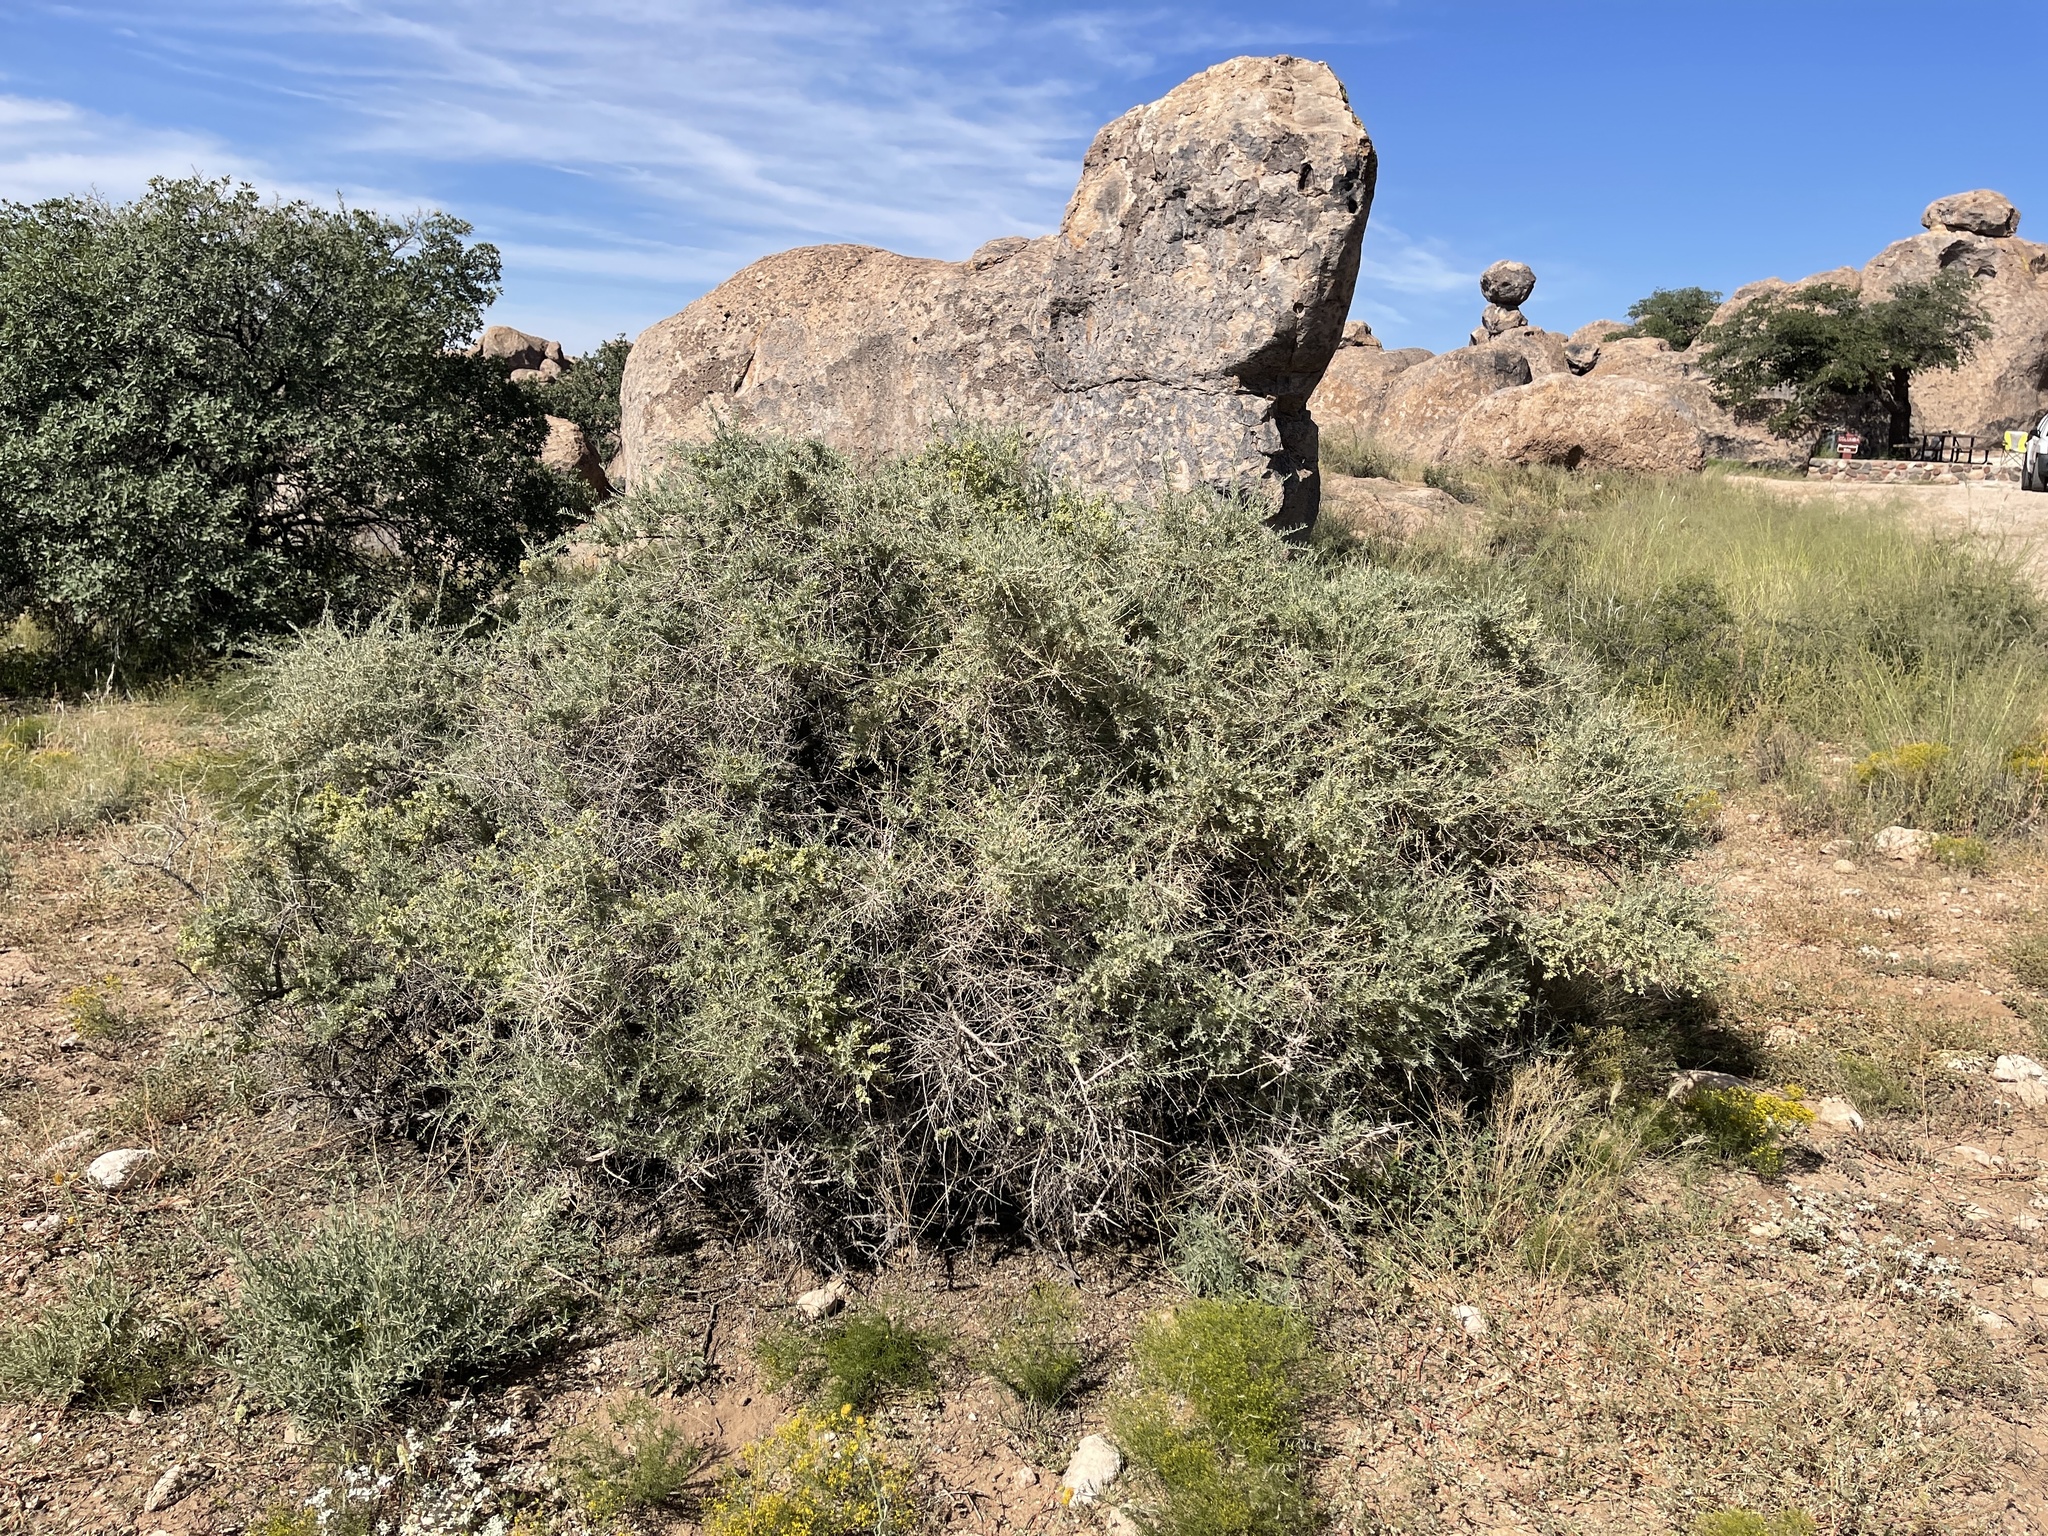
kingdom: Plantae
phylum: Tracheophyta
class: Magnoliopsida
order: Caryophyllales
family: Amaranthaceae
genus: Atriplex
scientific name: Atriplex canescens
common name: Four-wing saltbush
